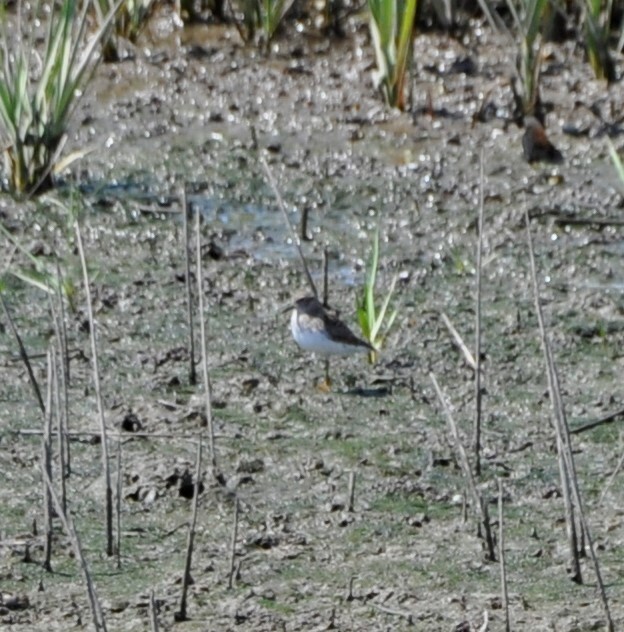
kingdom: Animalia
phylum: Chordata
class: Aves
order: Charadriiformes
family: Scolopacidae
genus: Calidris
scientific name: Calidris minutilla
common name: Least sandpiper
